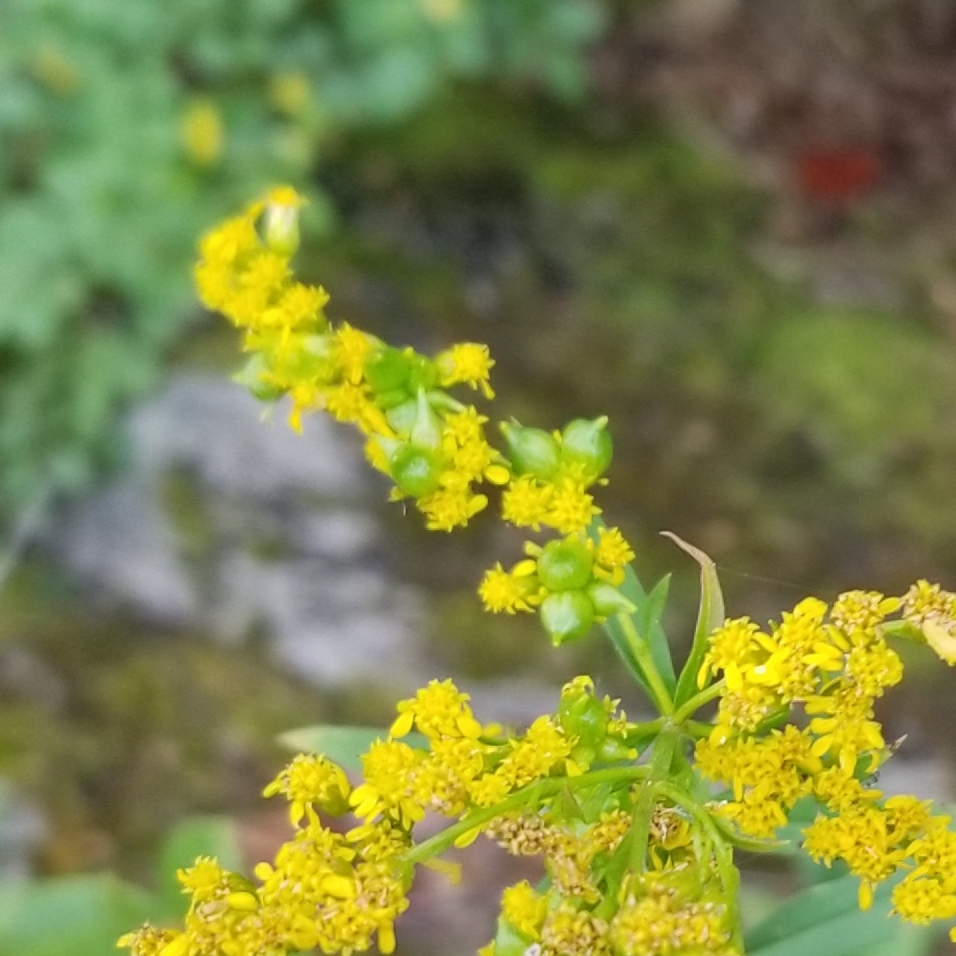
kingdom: Animalia
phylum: Arthropoda
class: Insecta
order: Diptera
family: Cecidomyiidae
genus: Schizomyia
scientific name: Schizomyia racemicola
